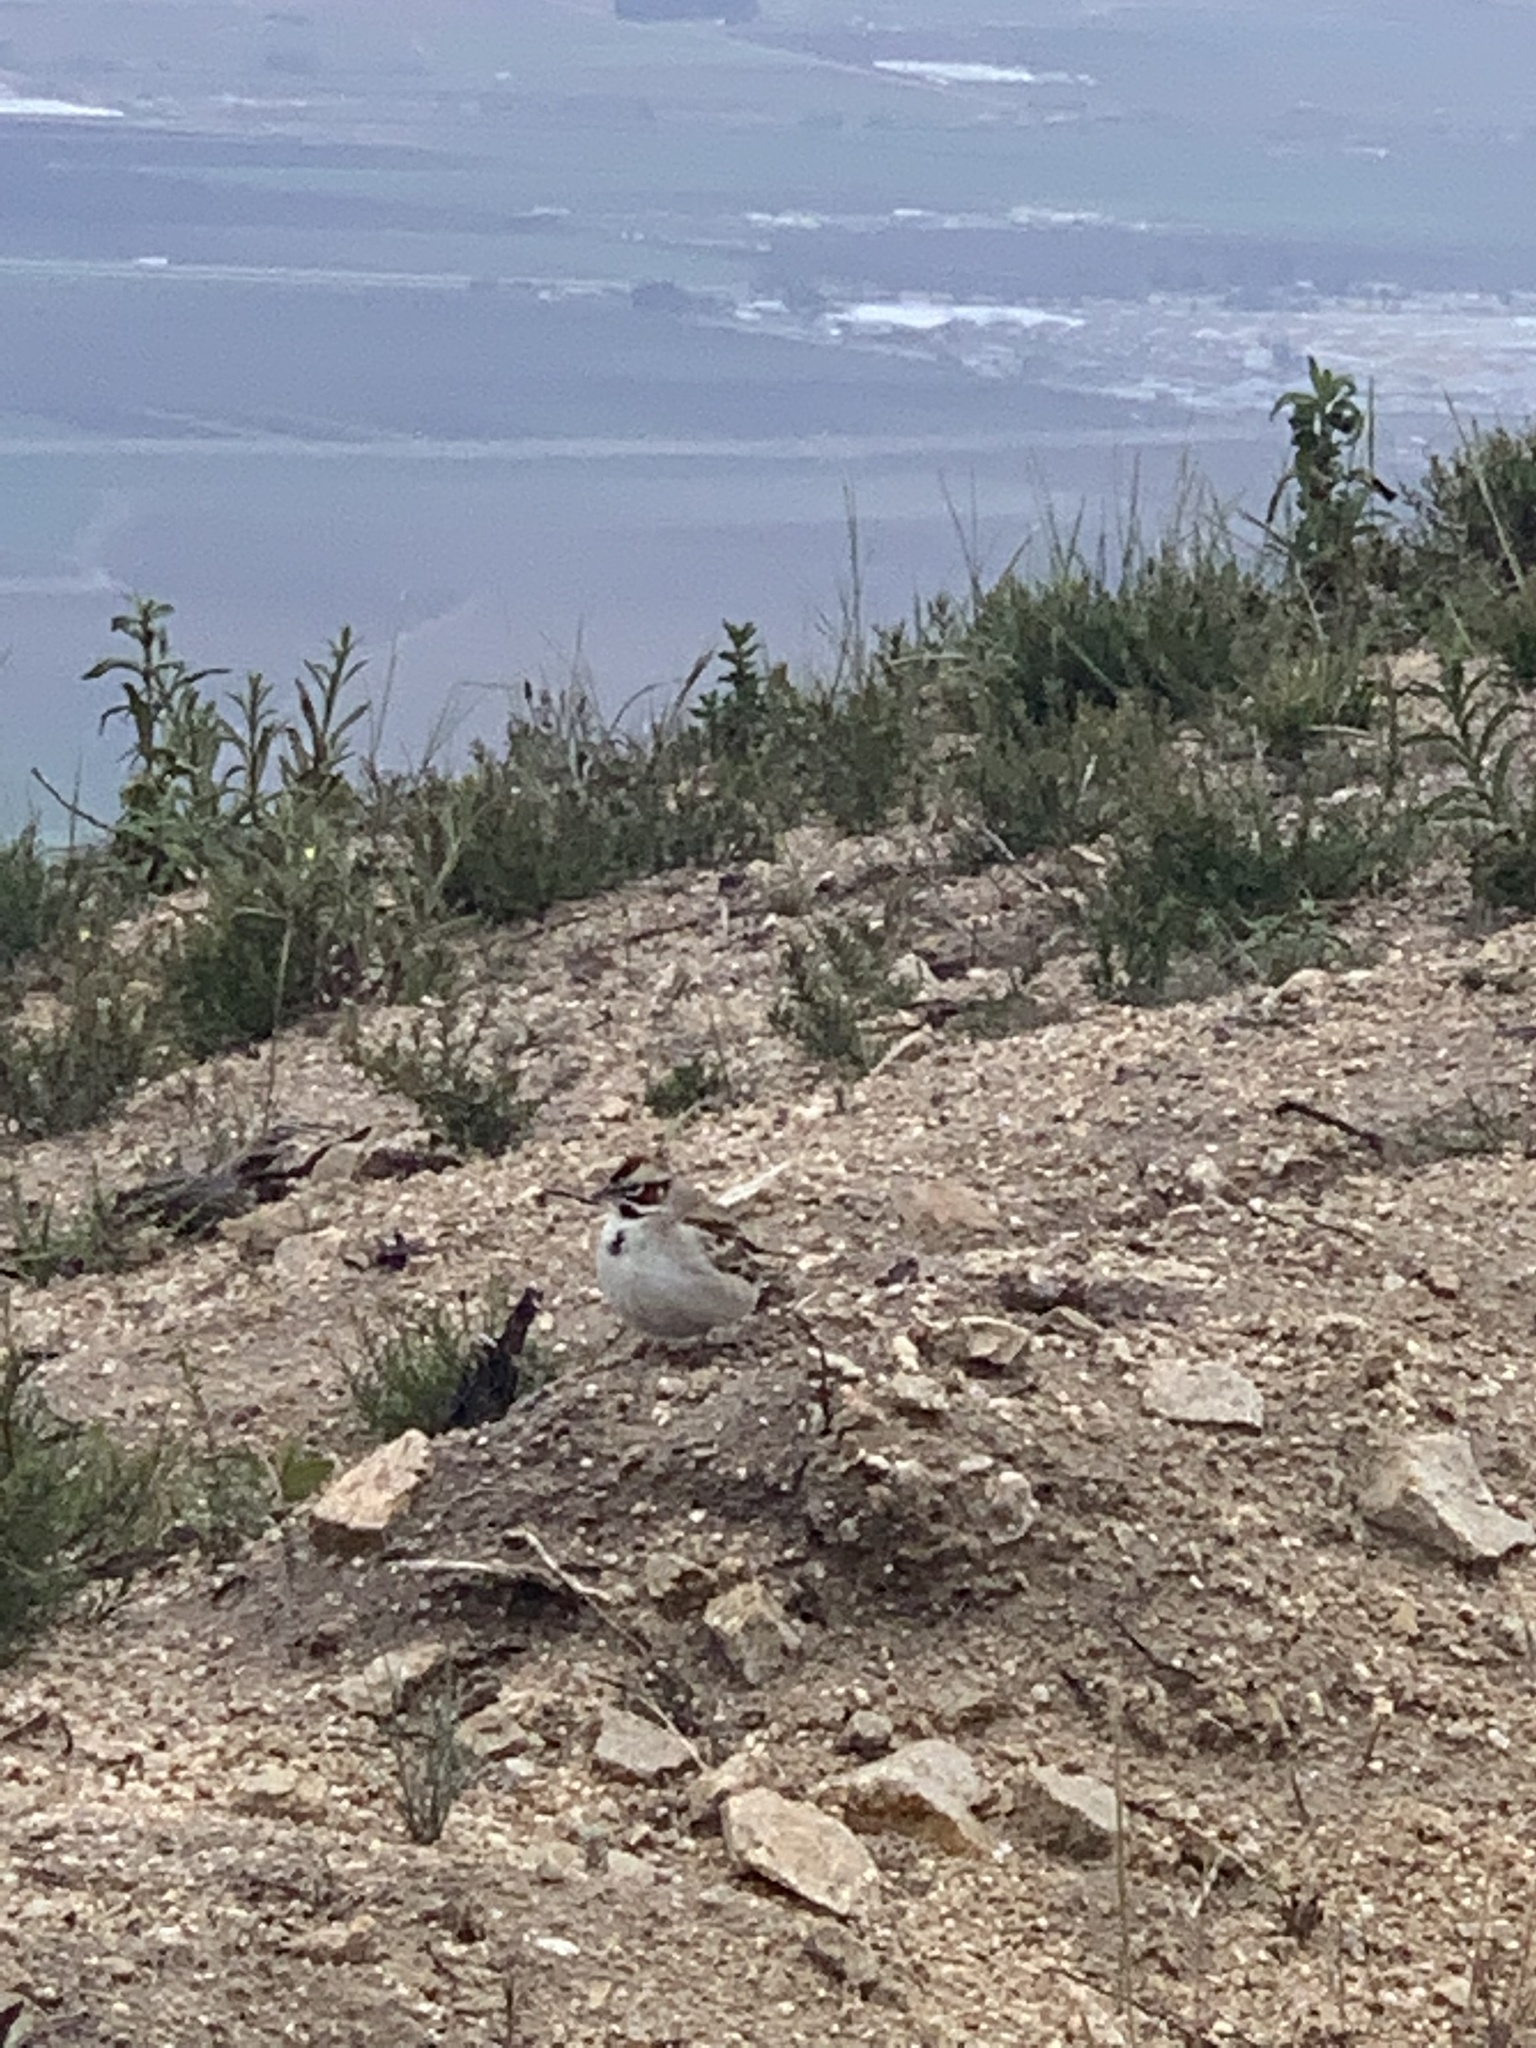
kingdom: Animalia
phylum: Chordata
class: Aves
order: Passeriformes
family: Passerellidae
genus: Chondestes
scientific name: Chondestes grammacus
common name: Lark sparrow
